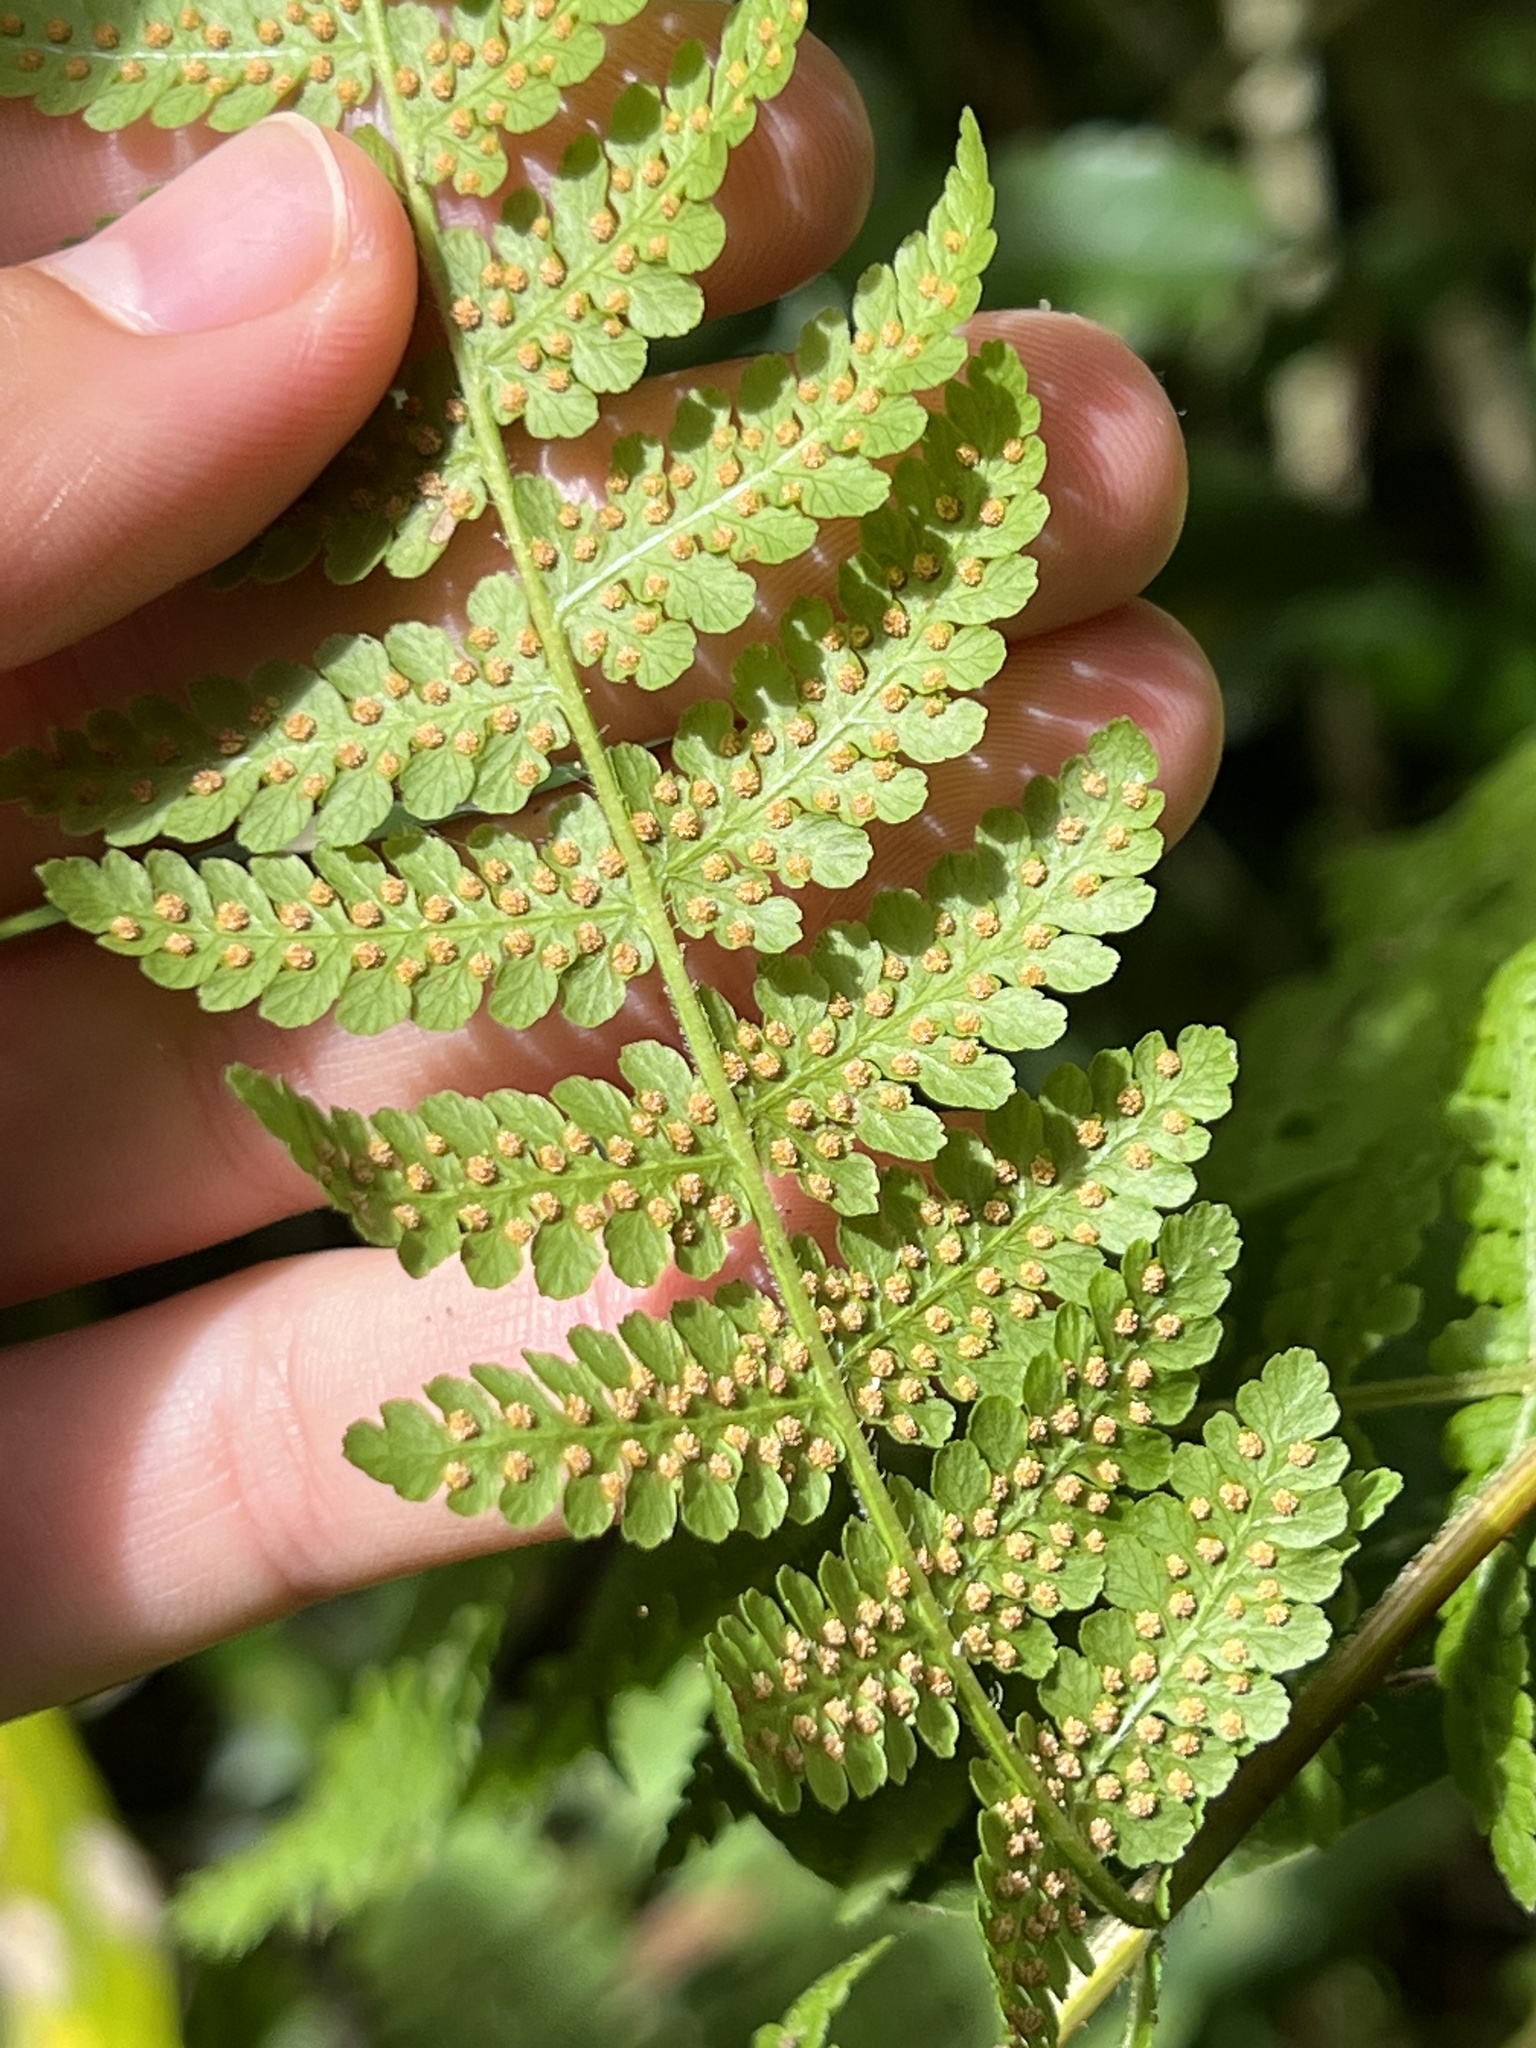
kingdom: Plantae
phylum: Tracheophyta
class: Polypodiopsida
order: Polypodiales
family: Dennstaedtiaceae
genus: Hypolepis
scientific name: Hypolepis ambigua
